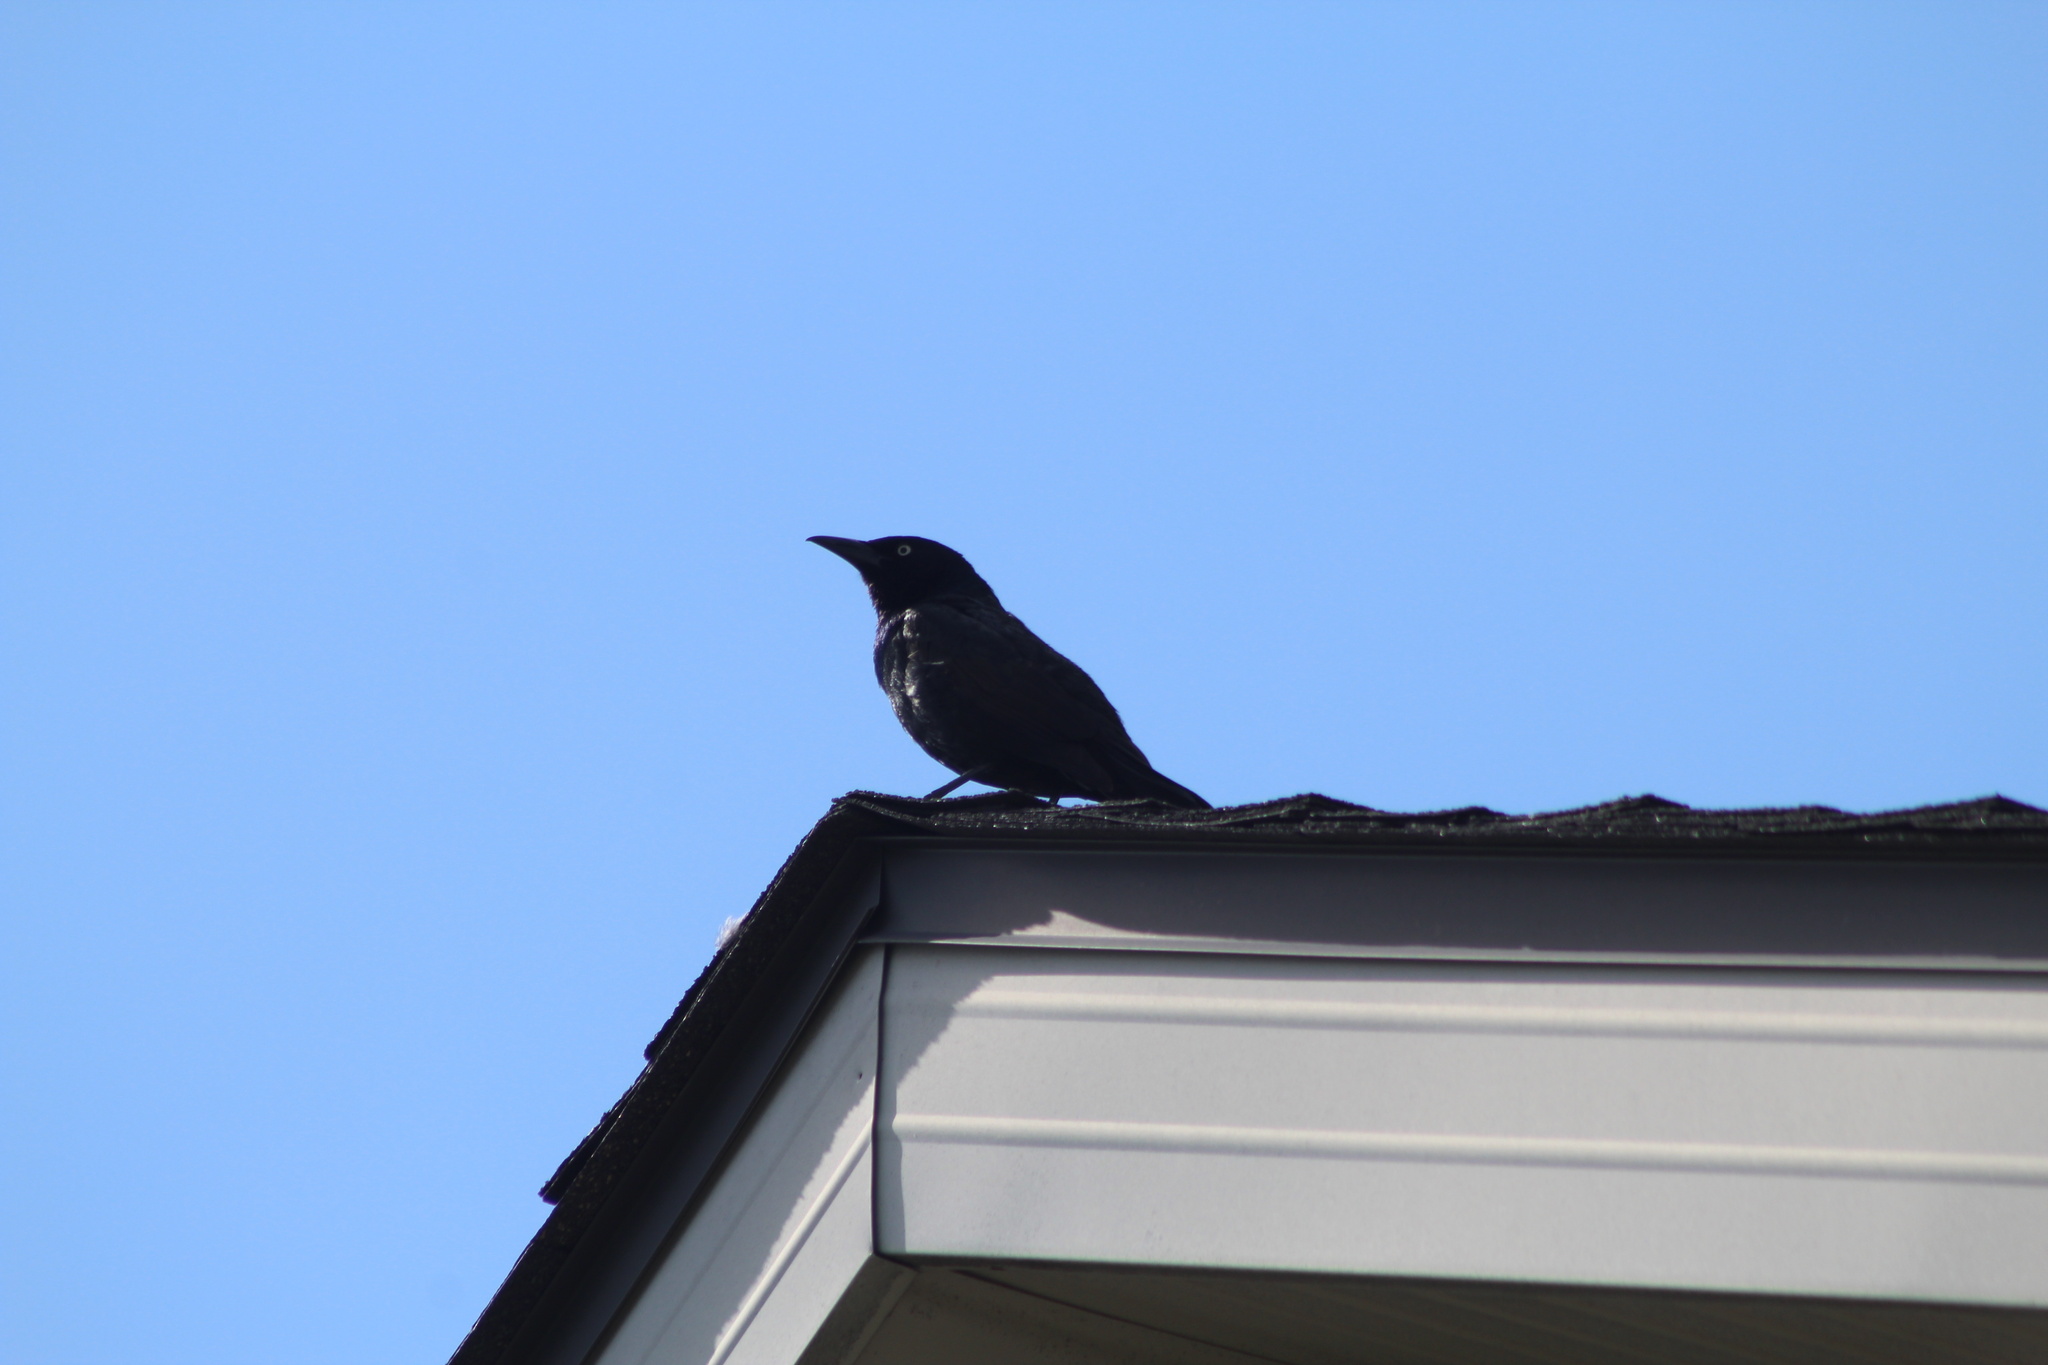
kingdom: Animalia
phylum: Chordata
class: Aves
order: Passeriformes
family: Icteridae
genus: Quiscalus
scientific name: Quiscalus quiscula
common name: Common grackle
